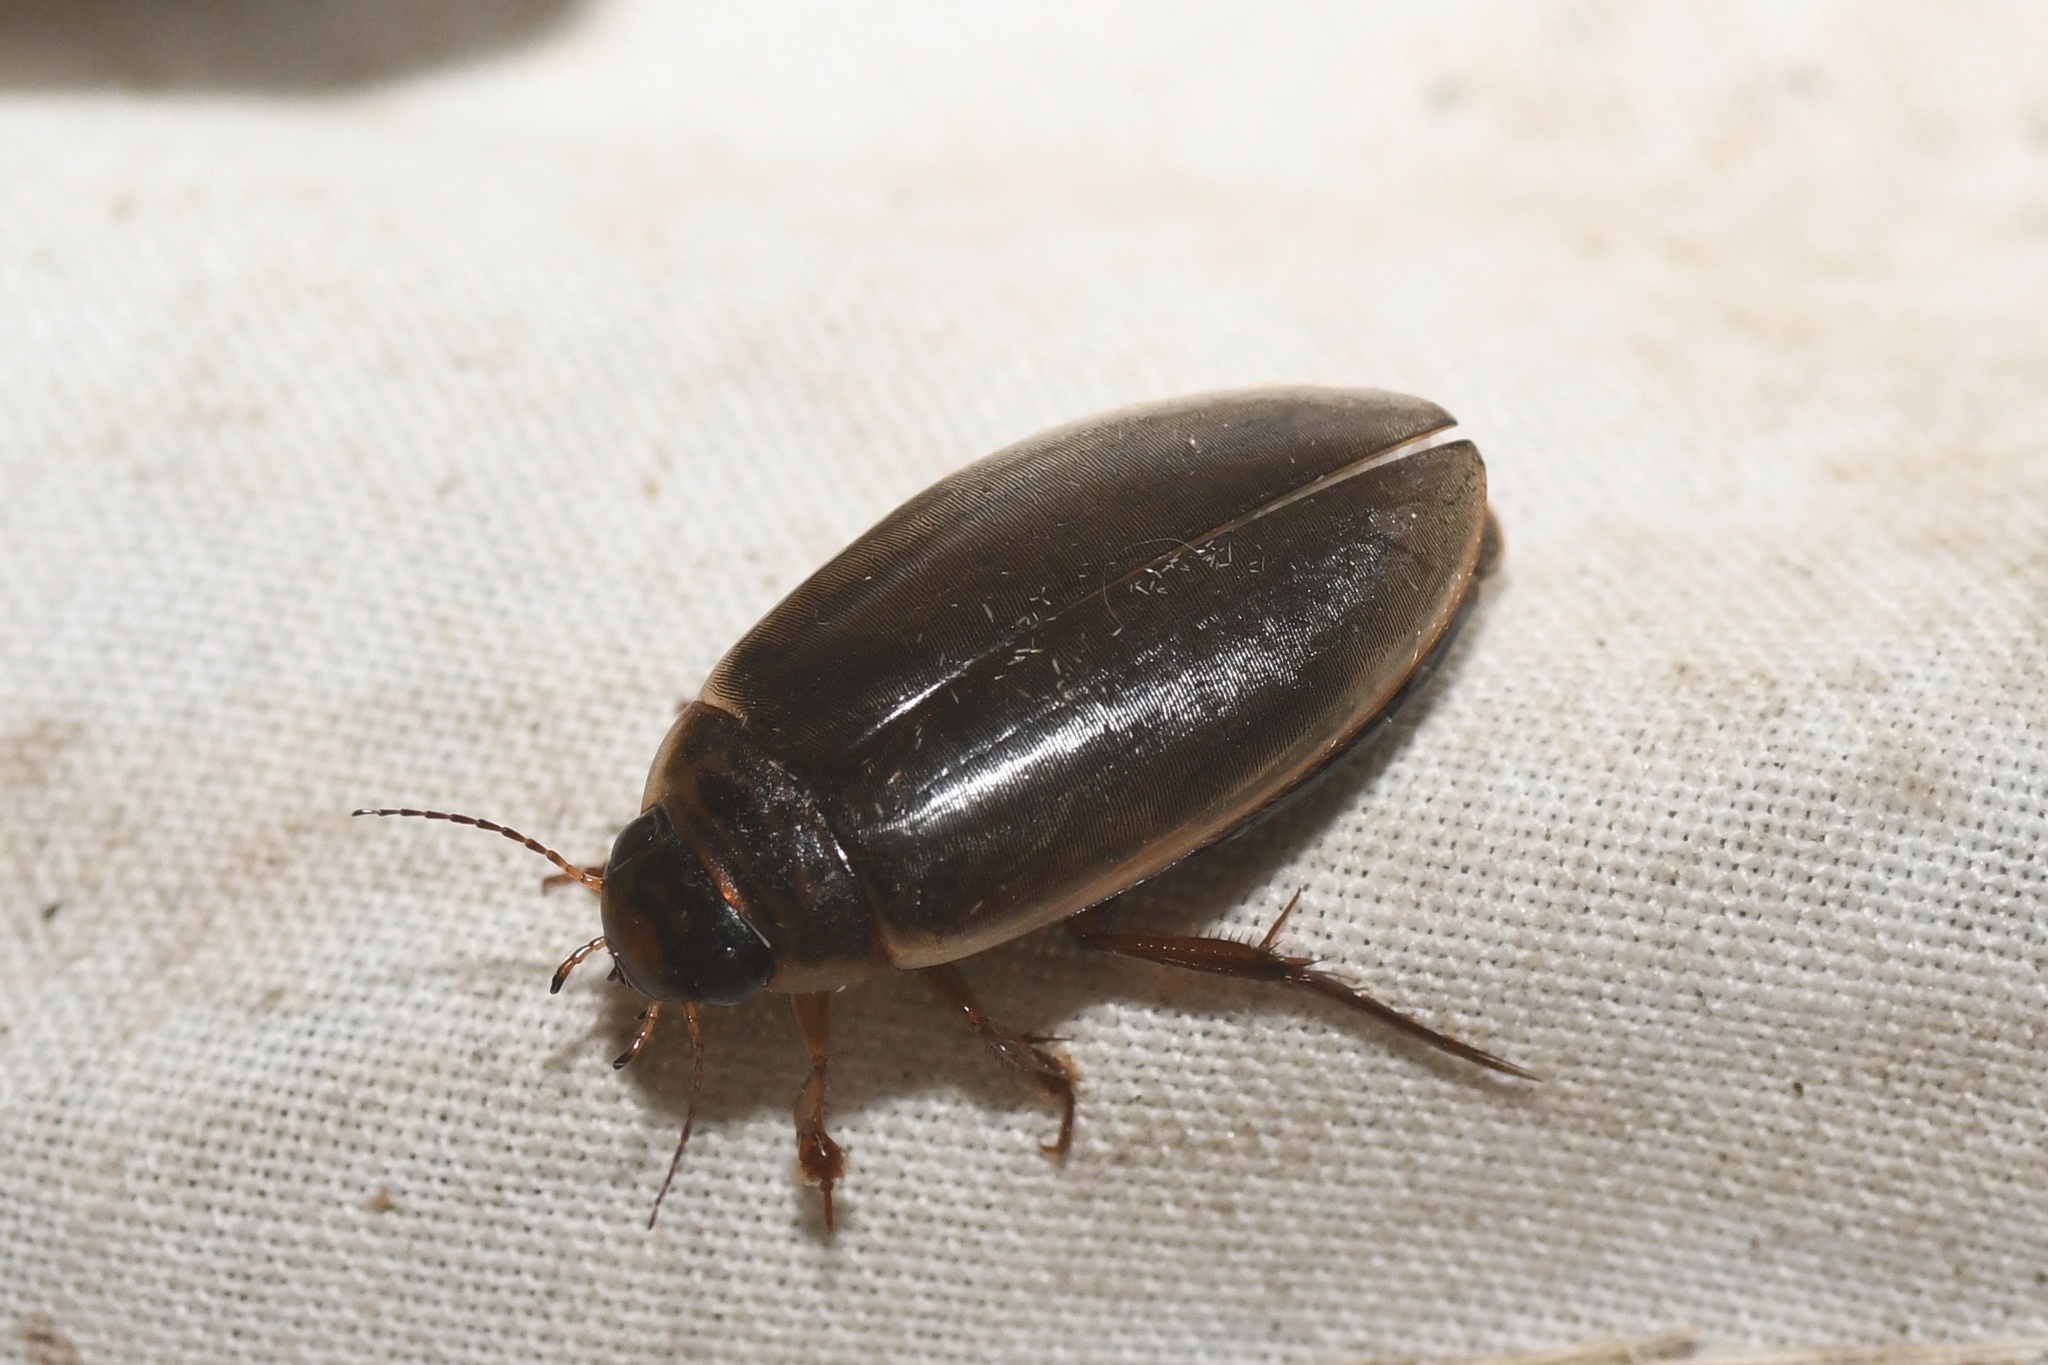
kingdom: Animalia
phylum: Arthropoda
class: Insecta
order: Coleoptera
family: Dytiscidae
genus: Colymbetes
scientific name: Colymbetes sculptilis
